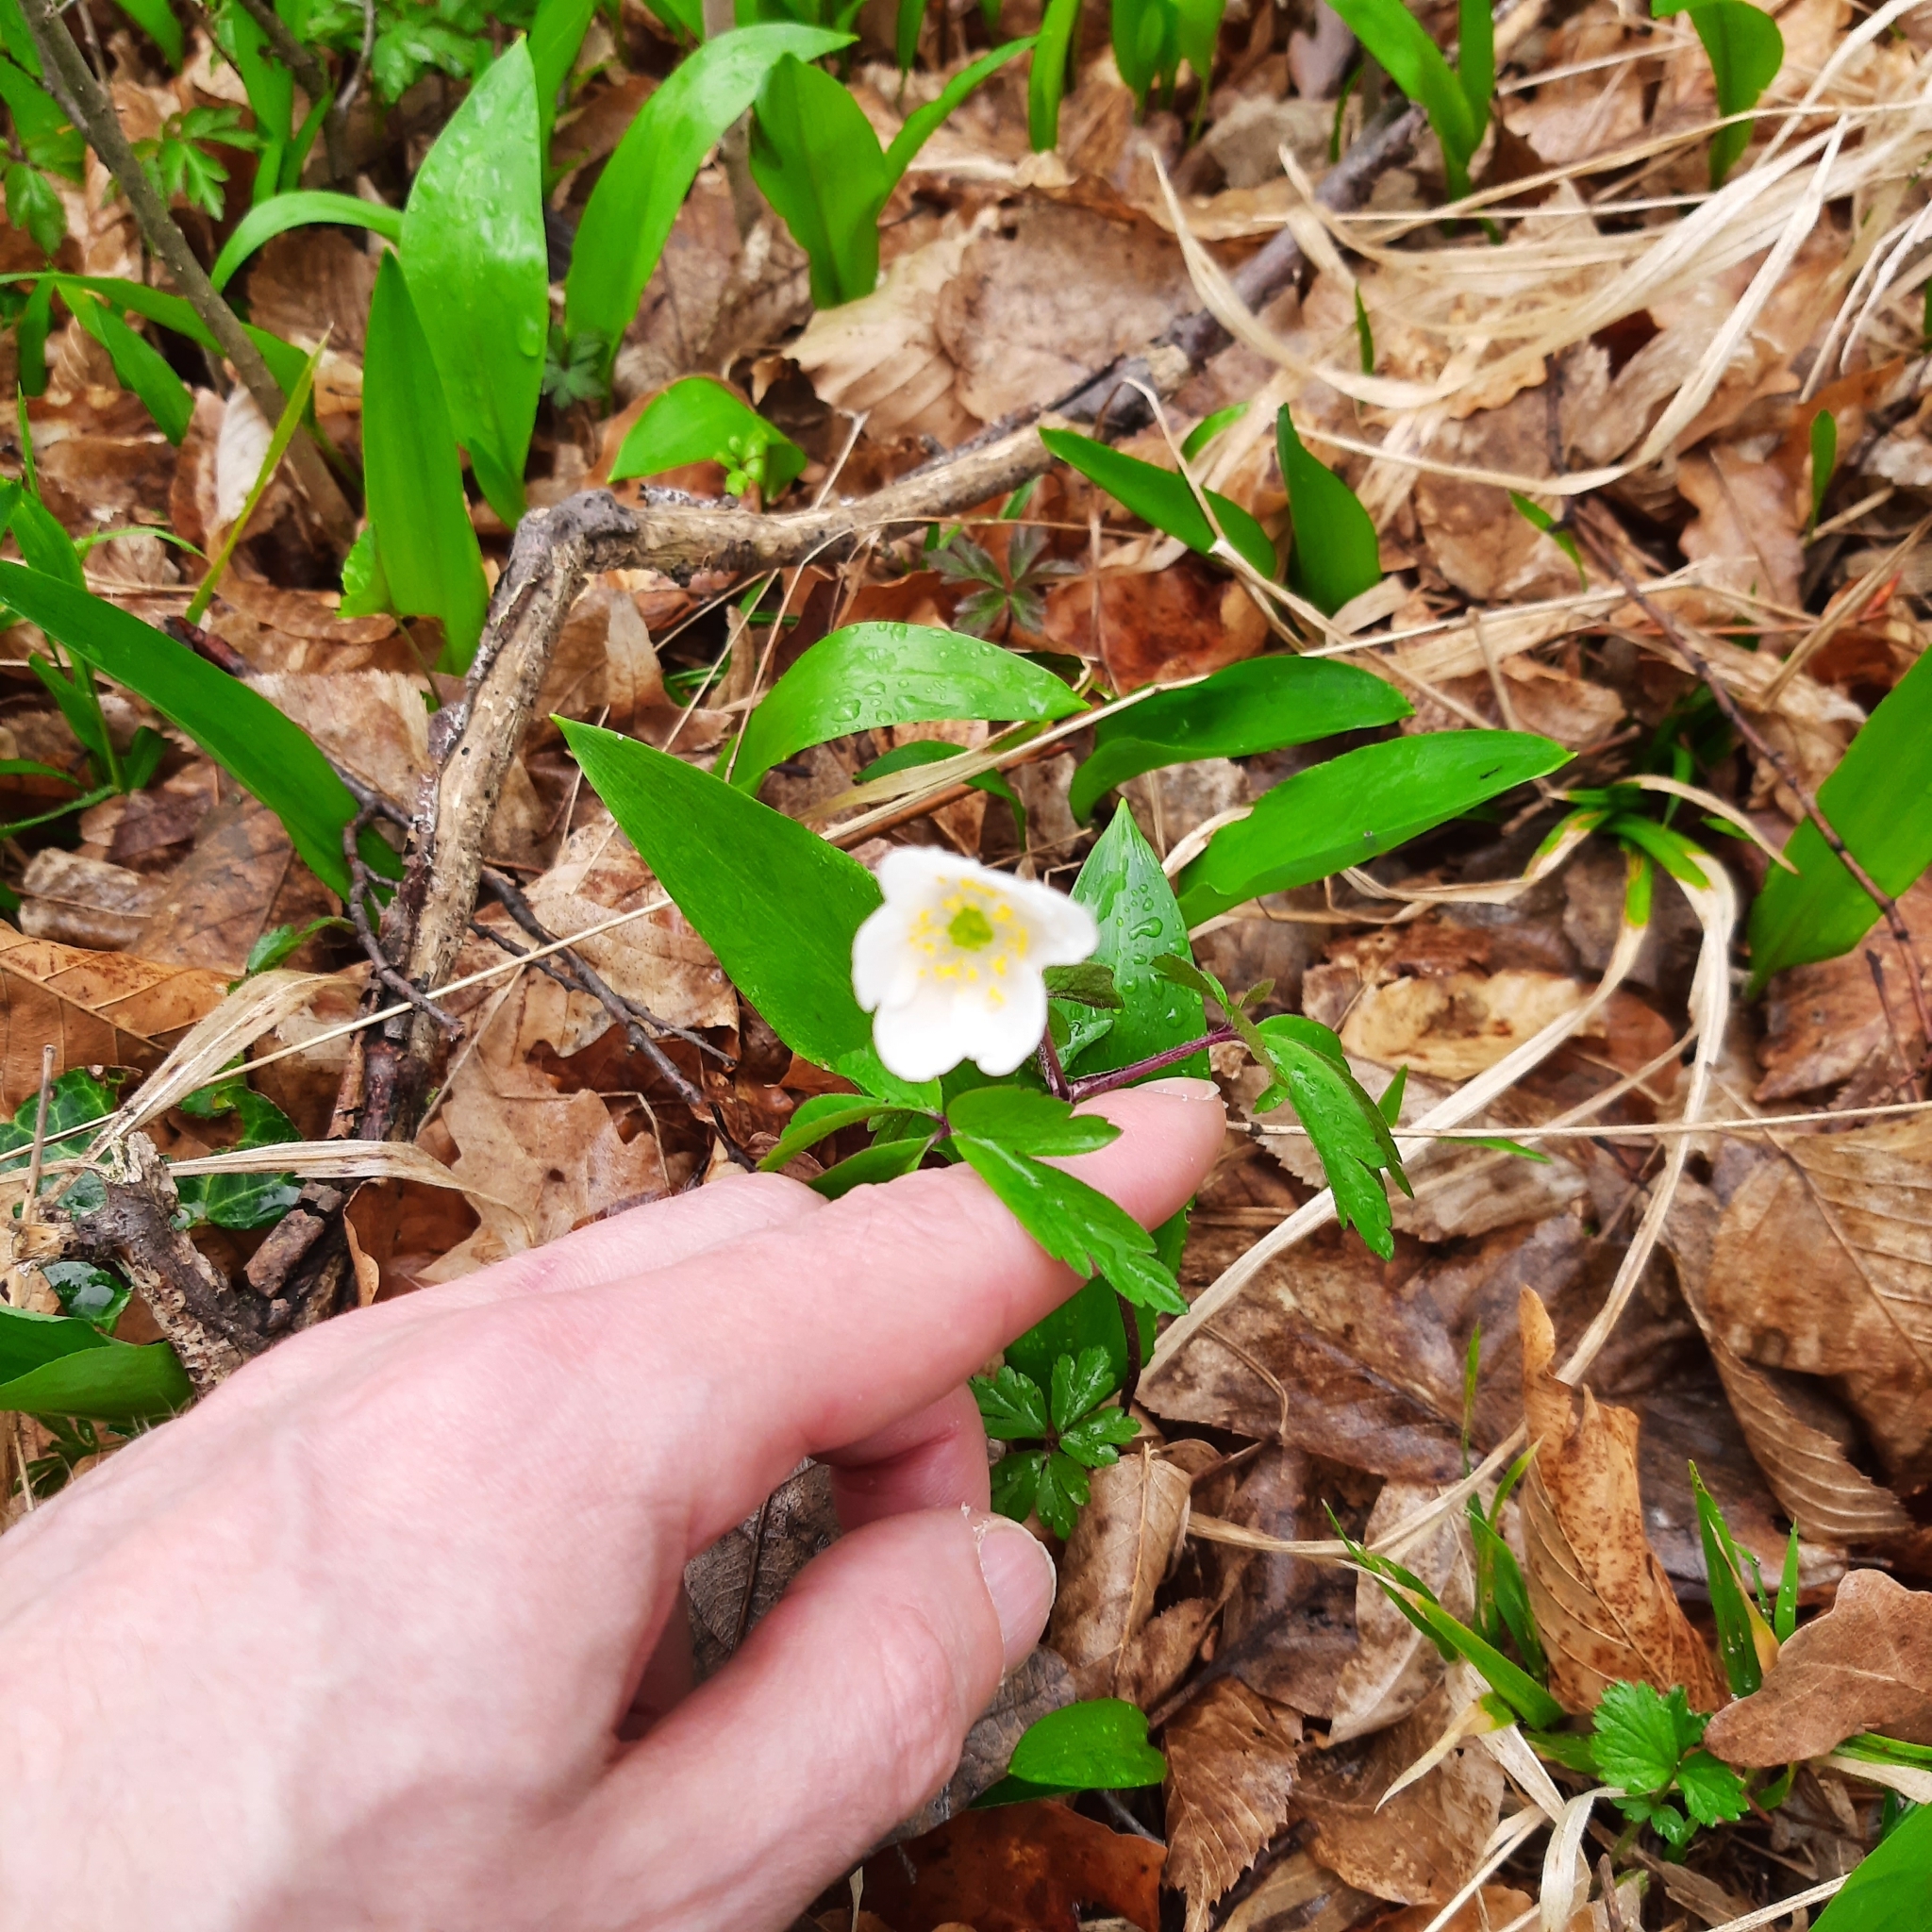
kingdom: Plantae
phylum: Tracheophyta
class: Magnoliopsida
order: Ranunculales
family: Ranunculaceae
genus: Anemone
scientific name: Anemone nemorosa
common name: Wood anemone
